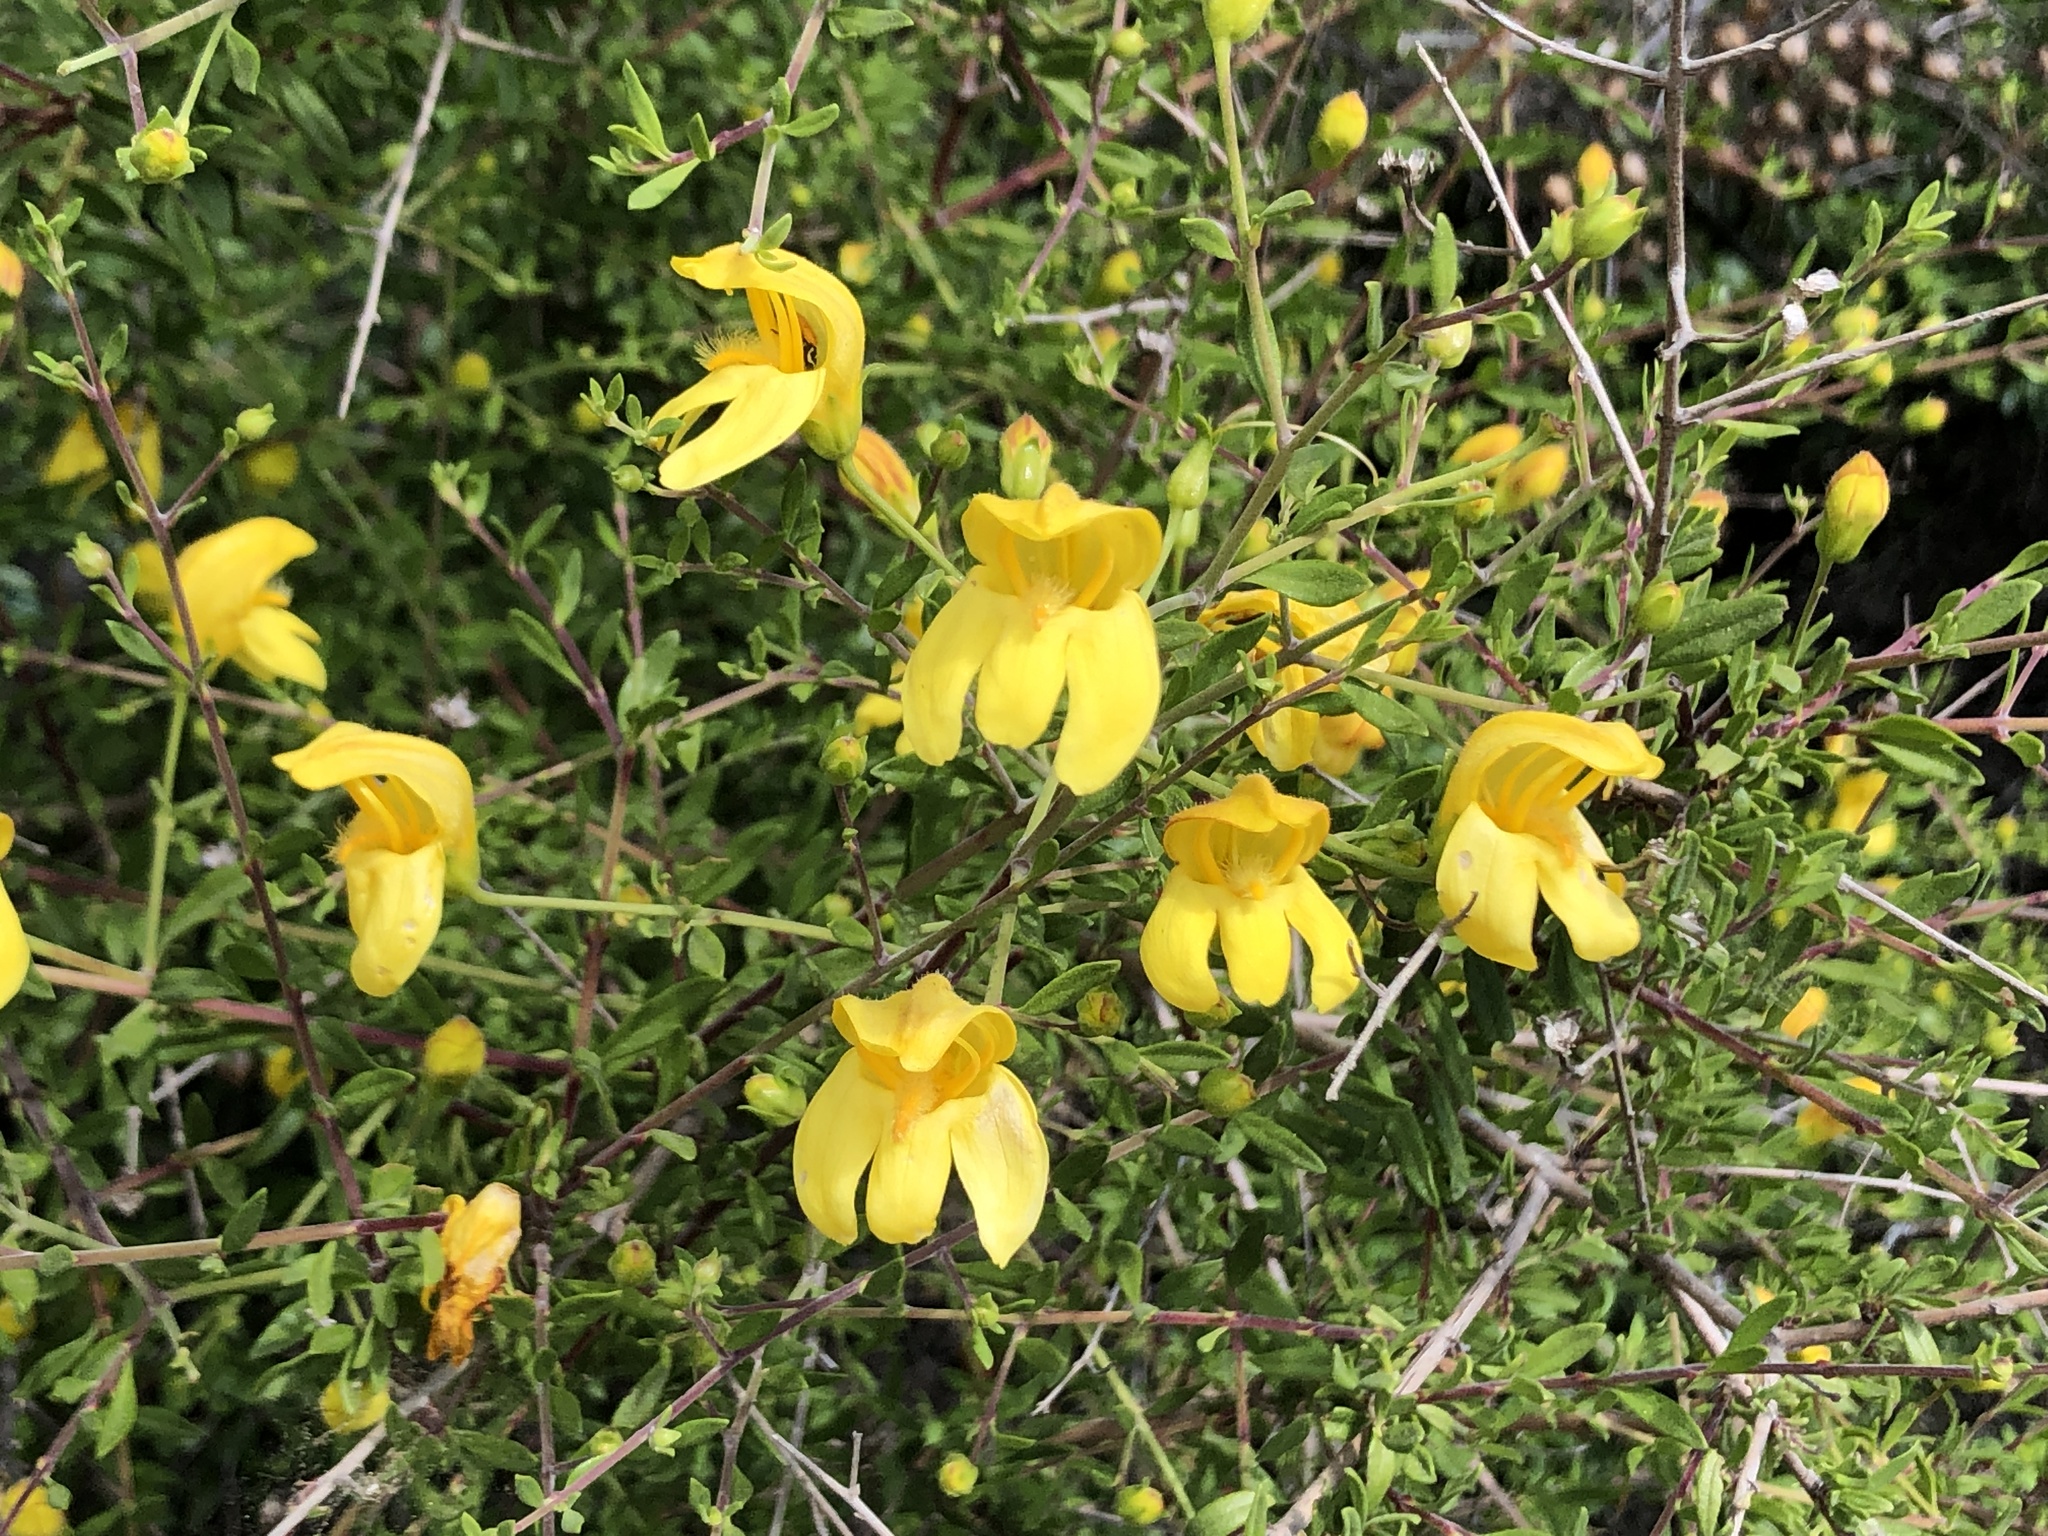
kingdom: Plantae
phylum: Tracheophyta
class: Magnoliopsida
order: Lamiales
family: Plantaginaceae
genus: Keckiella
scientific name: Keckiella antirrhinoides
